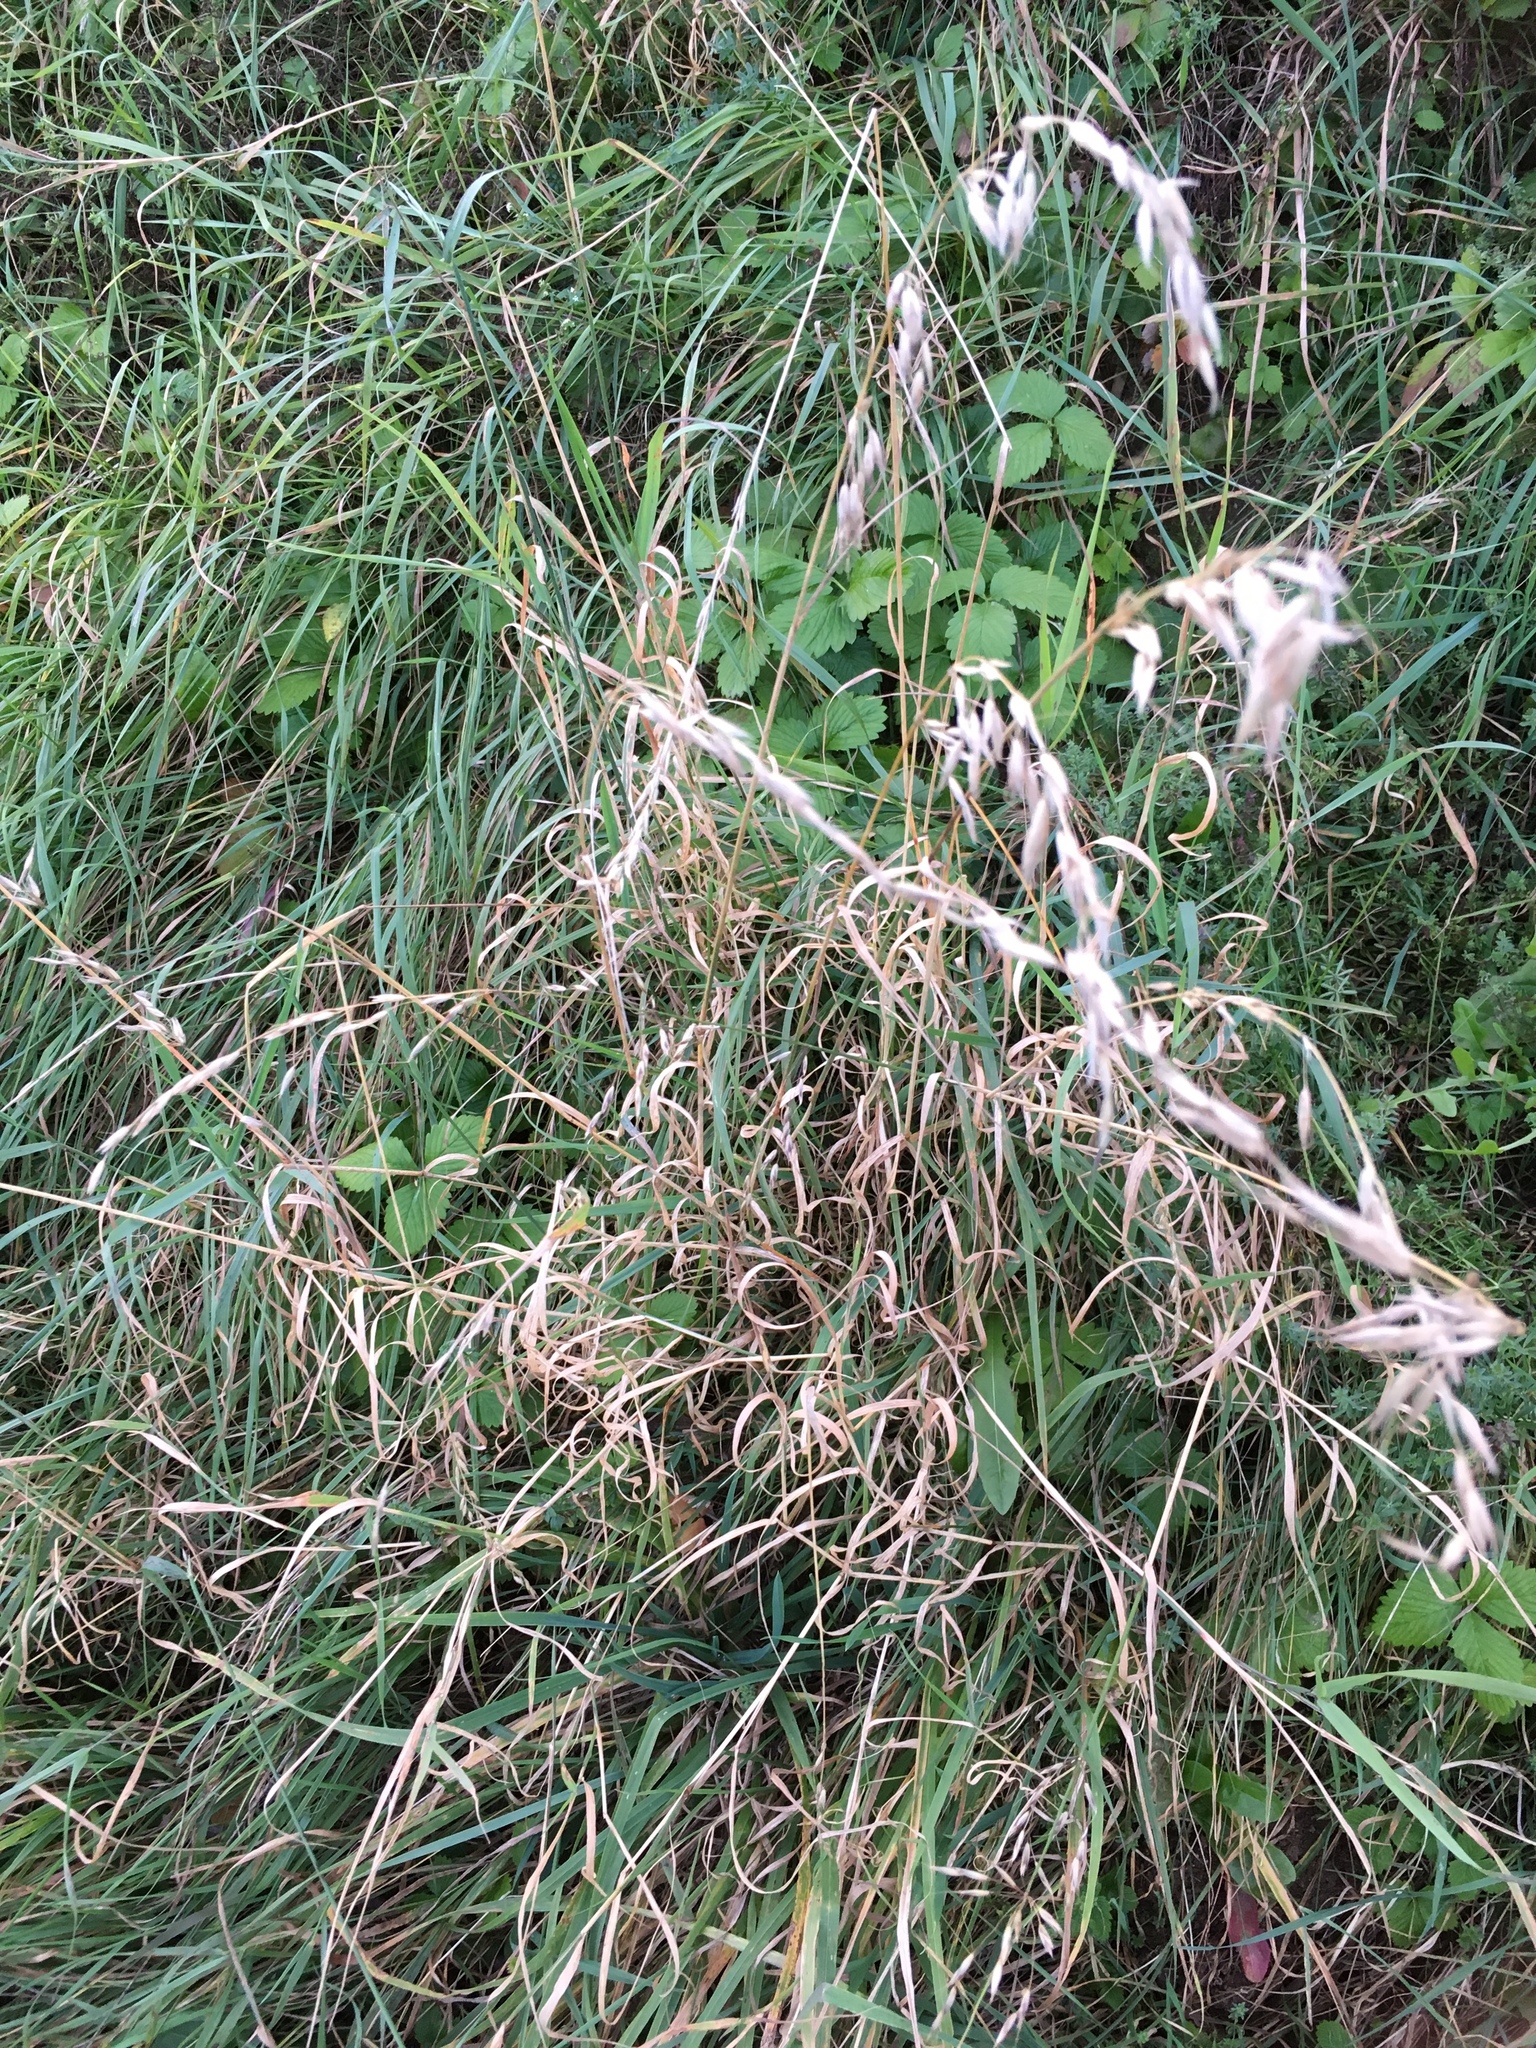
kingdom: Plantae
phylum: Tracheophyta
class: Liliopsida
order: Poales
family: Poaceae
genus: Arrhenatherum
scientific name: Arrhenatherum elatius
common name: Tall oatgrass
